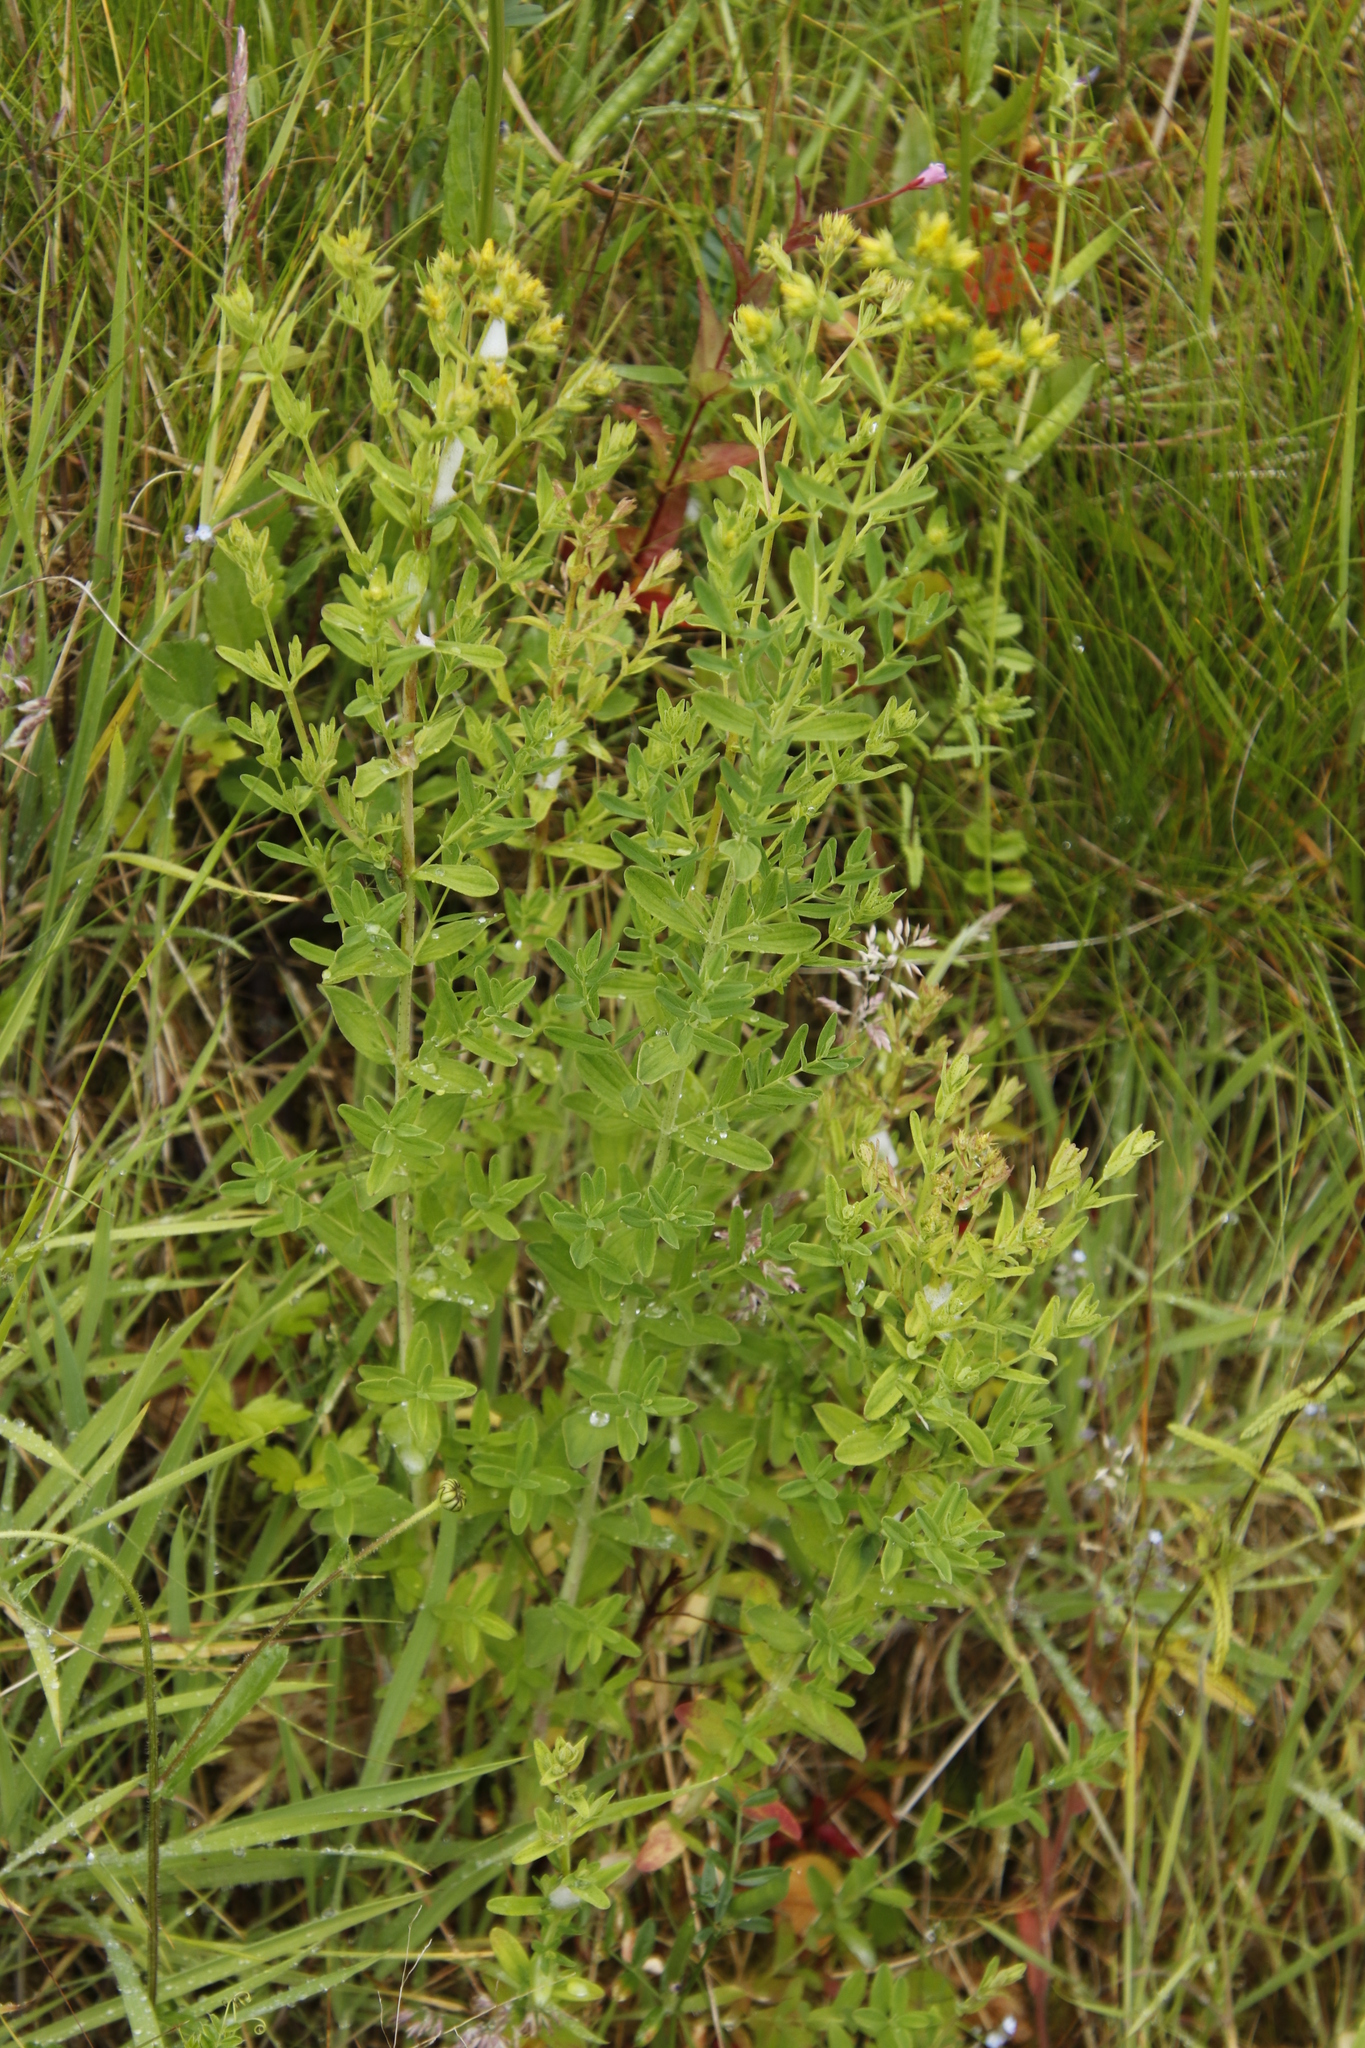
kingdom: Plantae
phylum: Tracheophyta
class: Magnoliopsida
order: Malpighiales
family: Hypericaceae
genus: Hypericum
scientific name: Hypericum desetangsii
